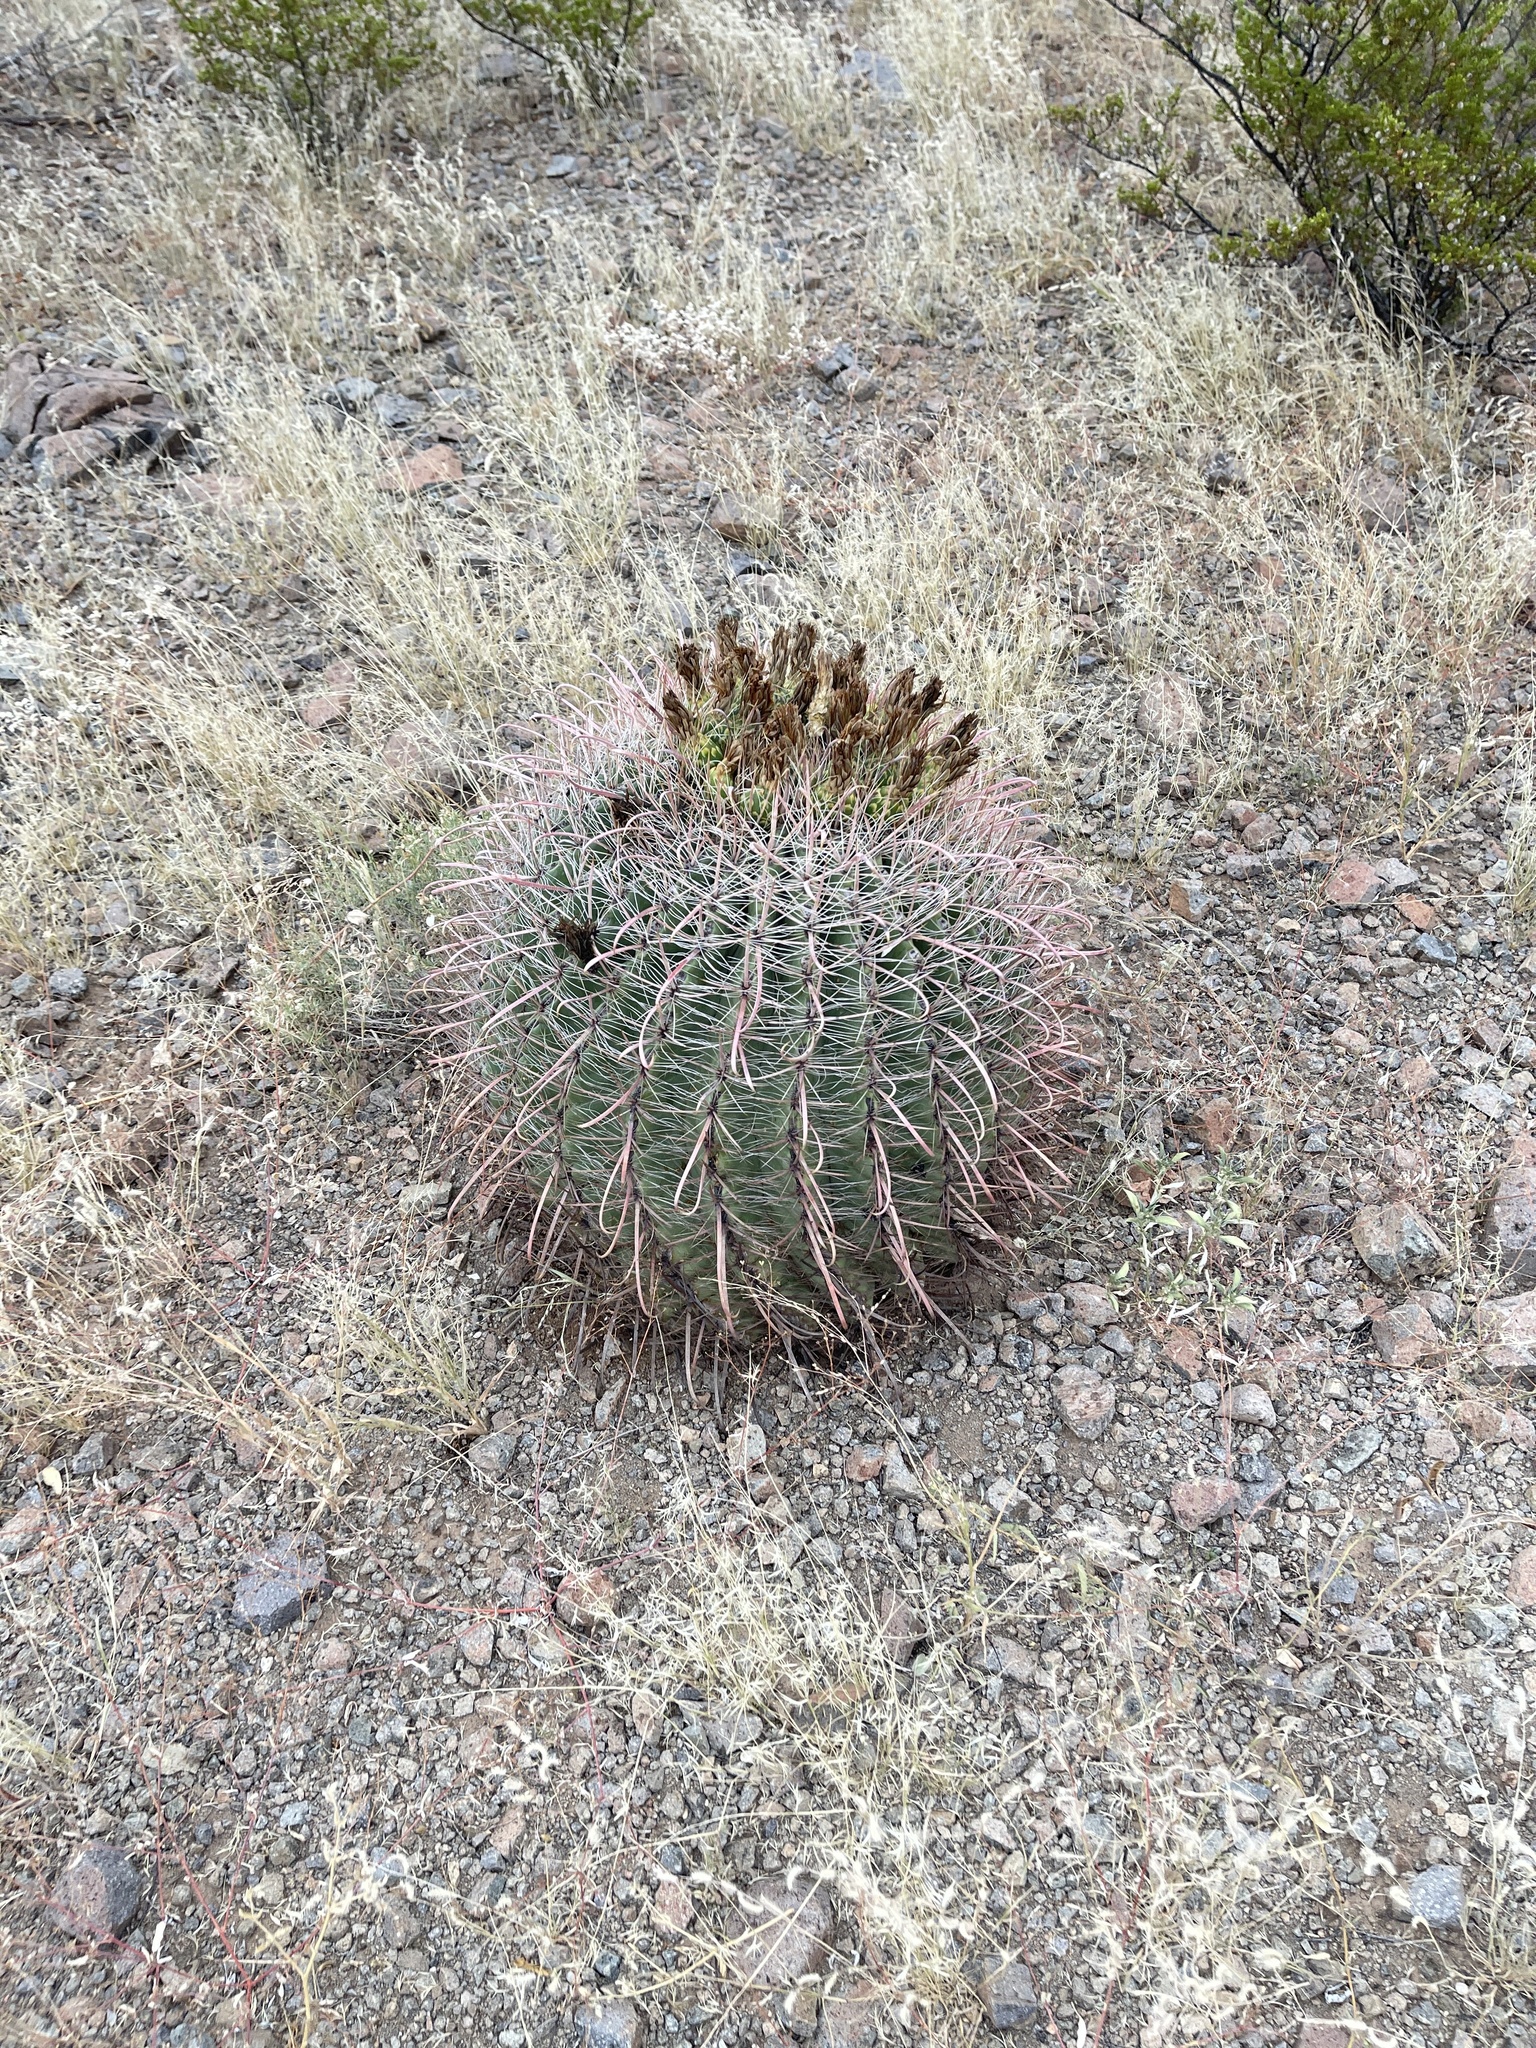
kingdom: Plantae
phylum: Tracheophyta
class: Magnoliopsida
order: Caryophyllales
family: Cactaceae
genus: Ferocactus
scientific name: Ferocactus wislizeni
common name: Candy barrel cactus
